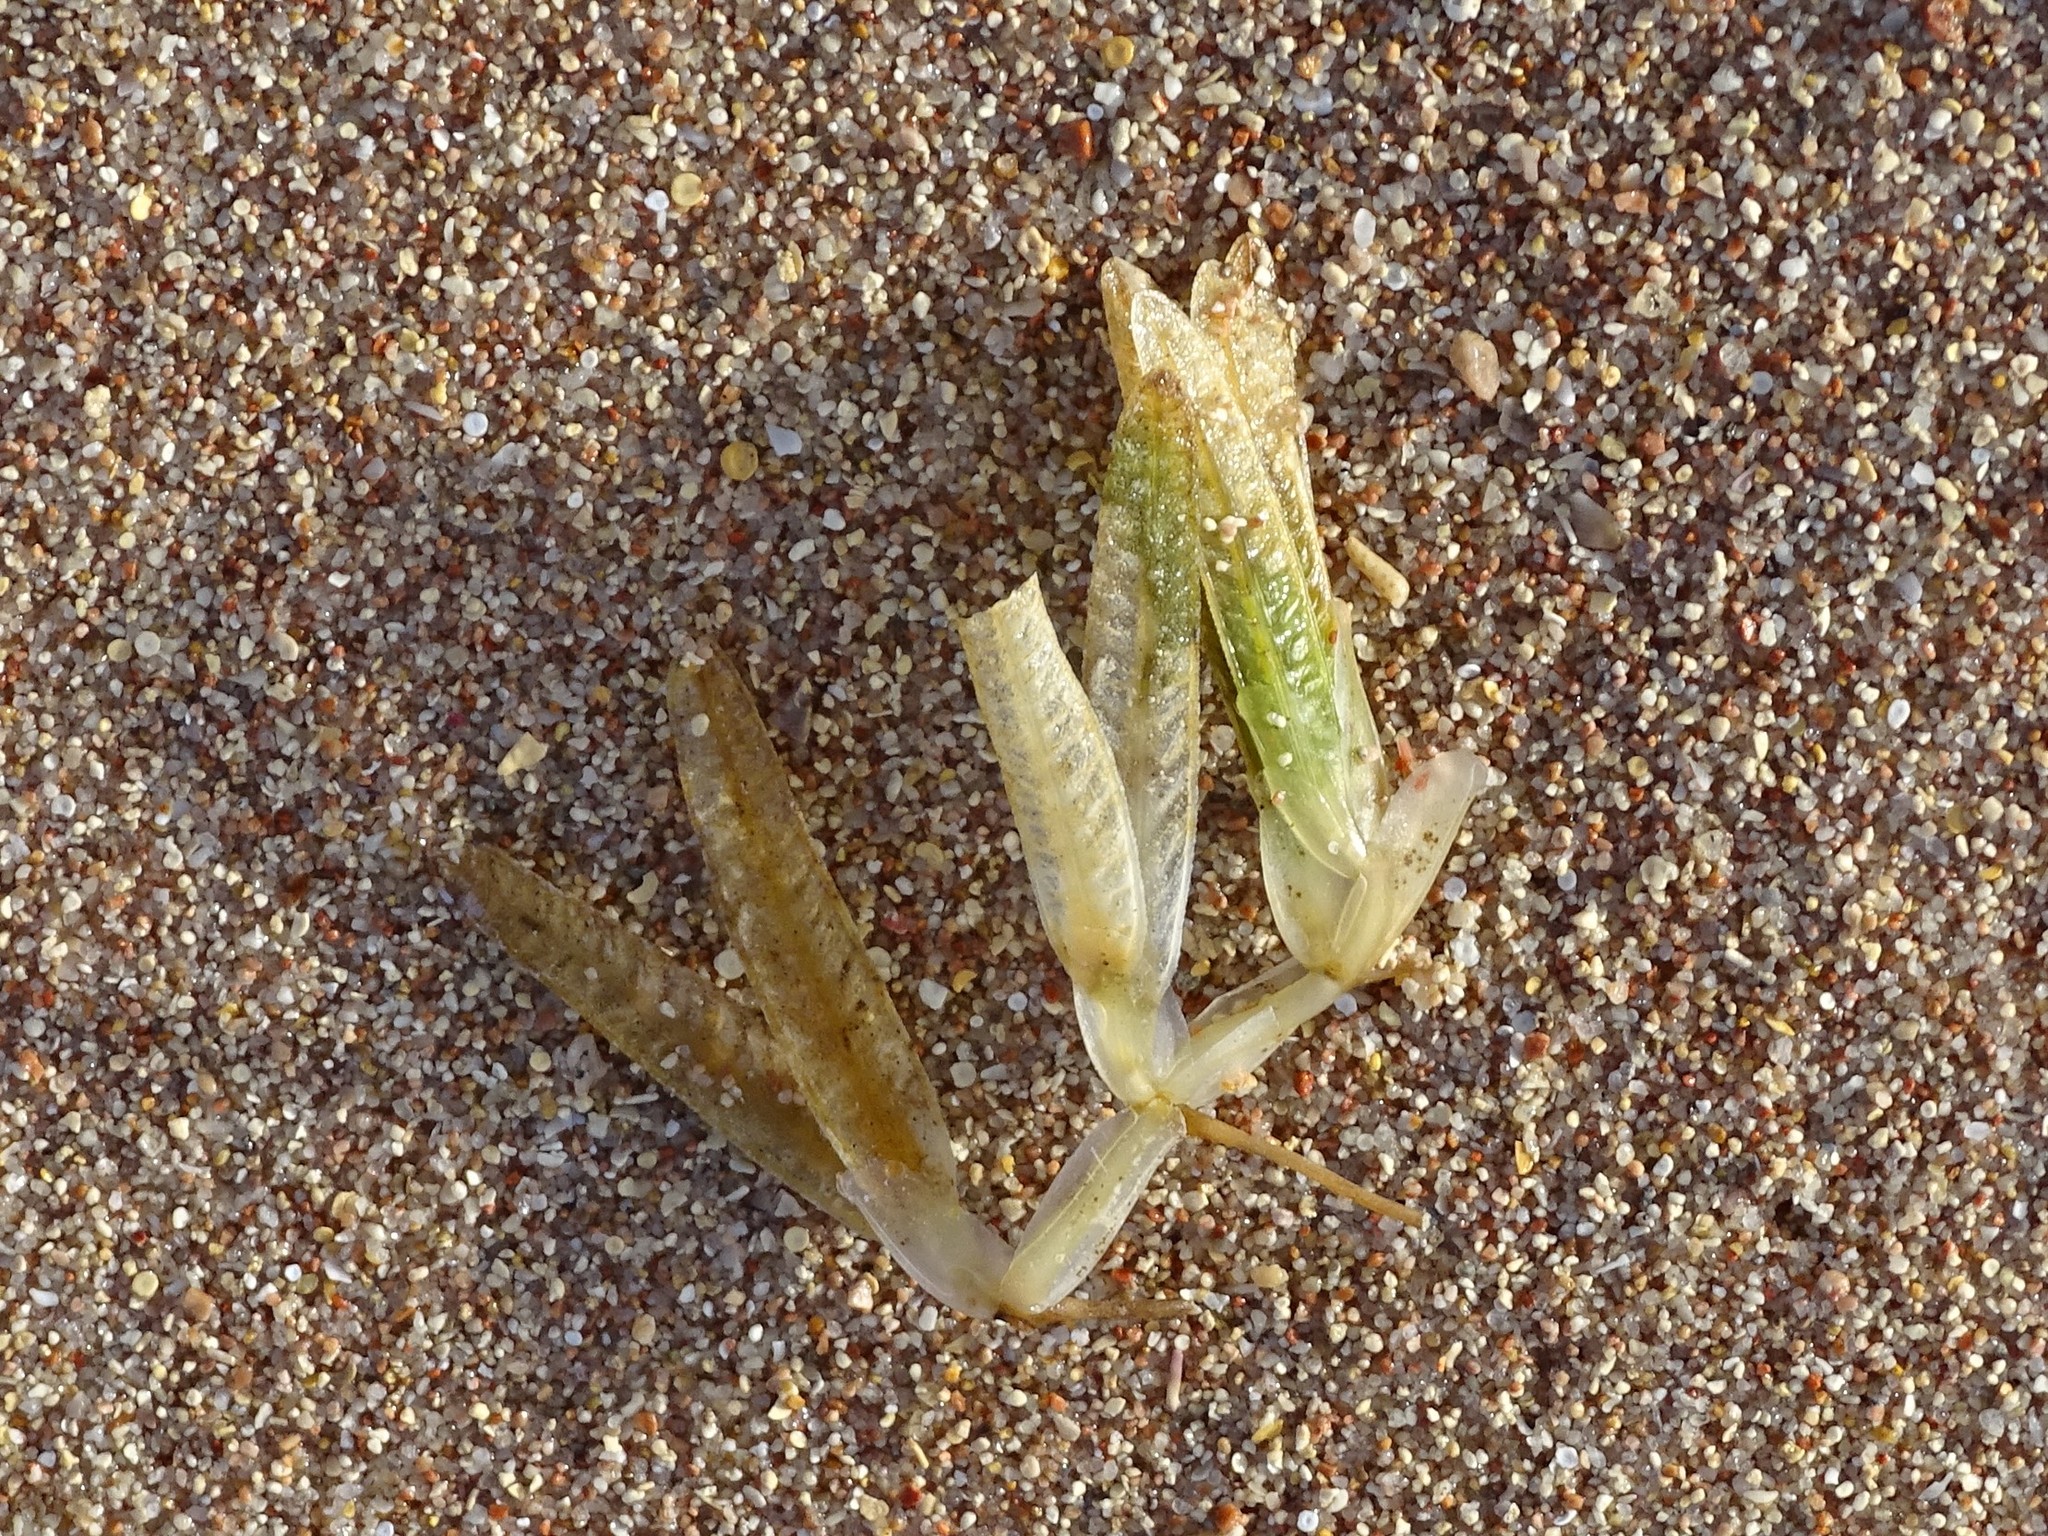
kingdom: Plantae
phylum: Tracheophyta
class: Liliopsida
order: Alismatales
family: Hydrocharitaceae
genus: Halophila
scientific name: Halophila stipulacea
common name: Species code: hs
